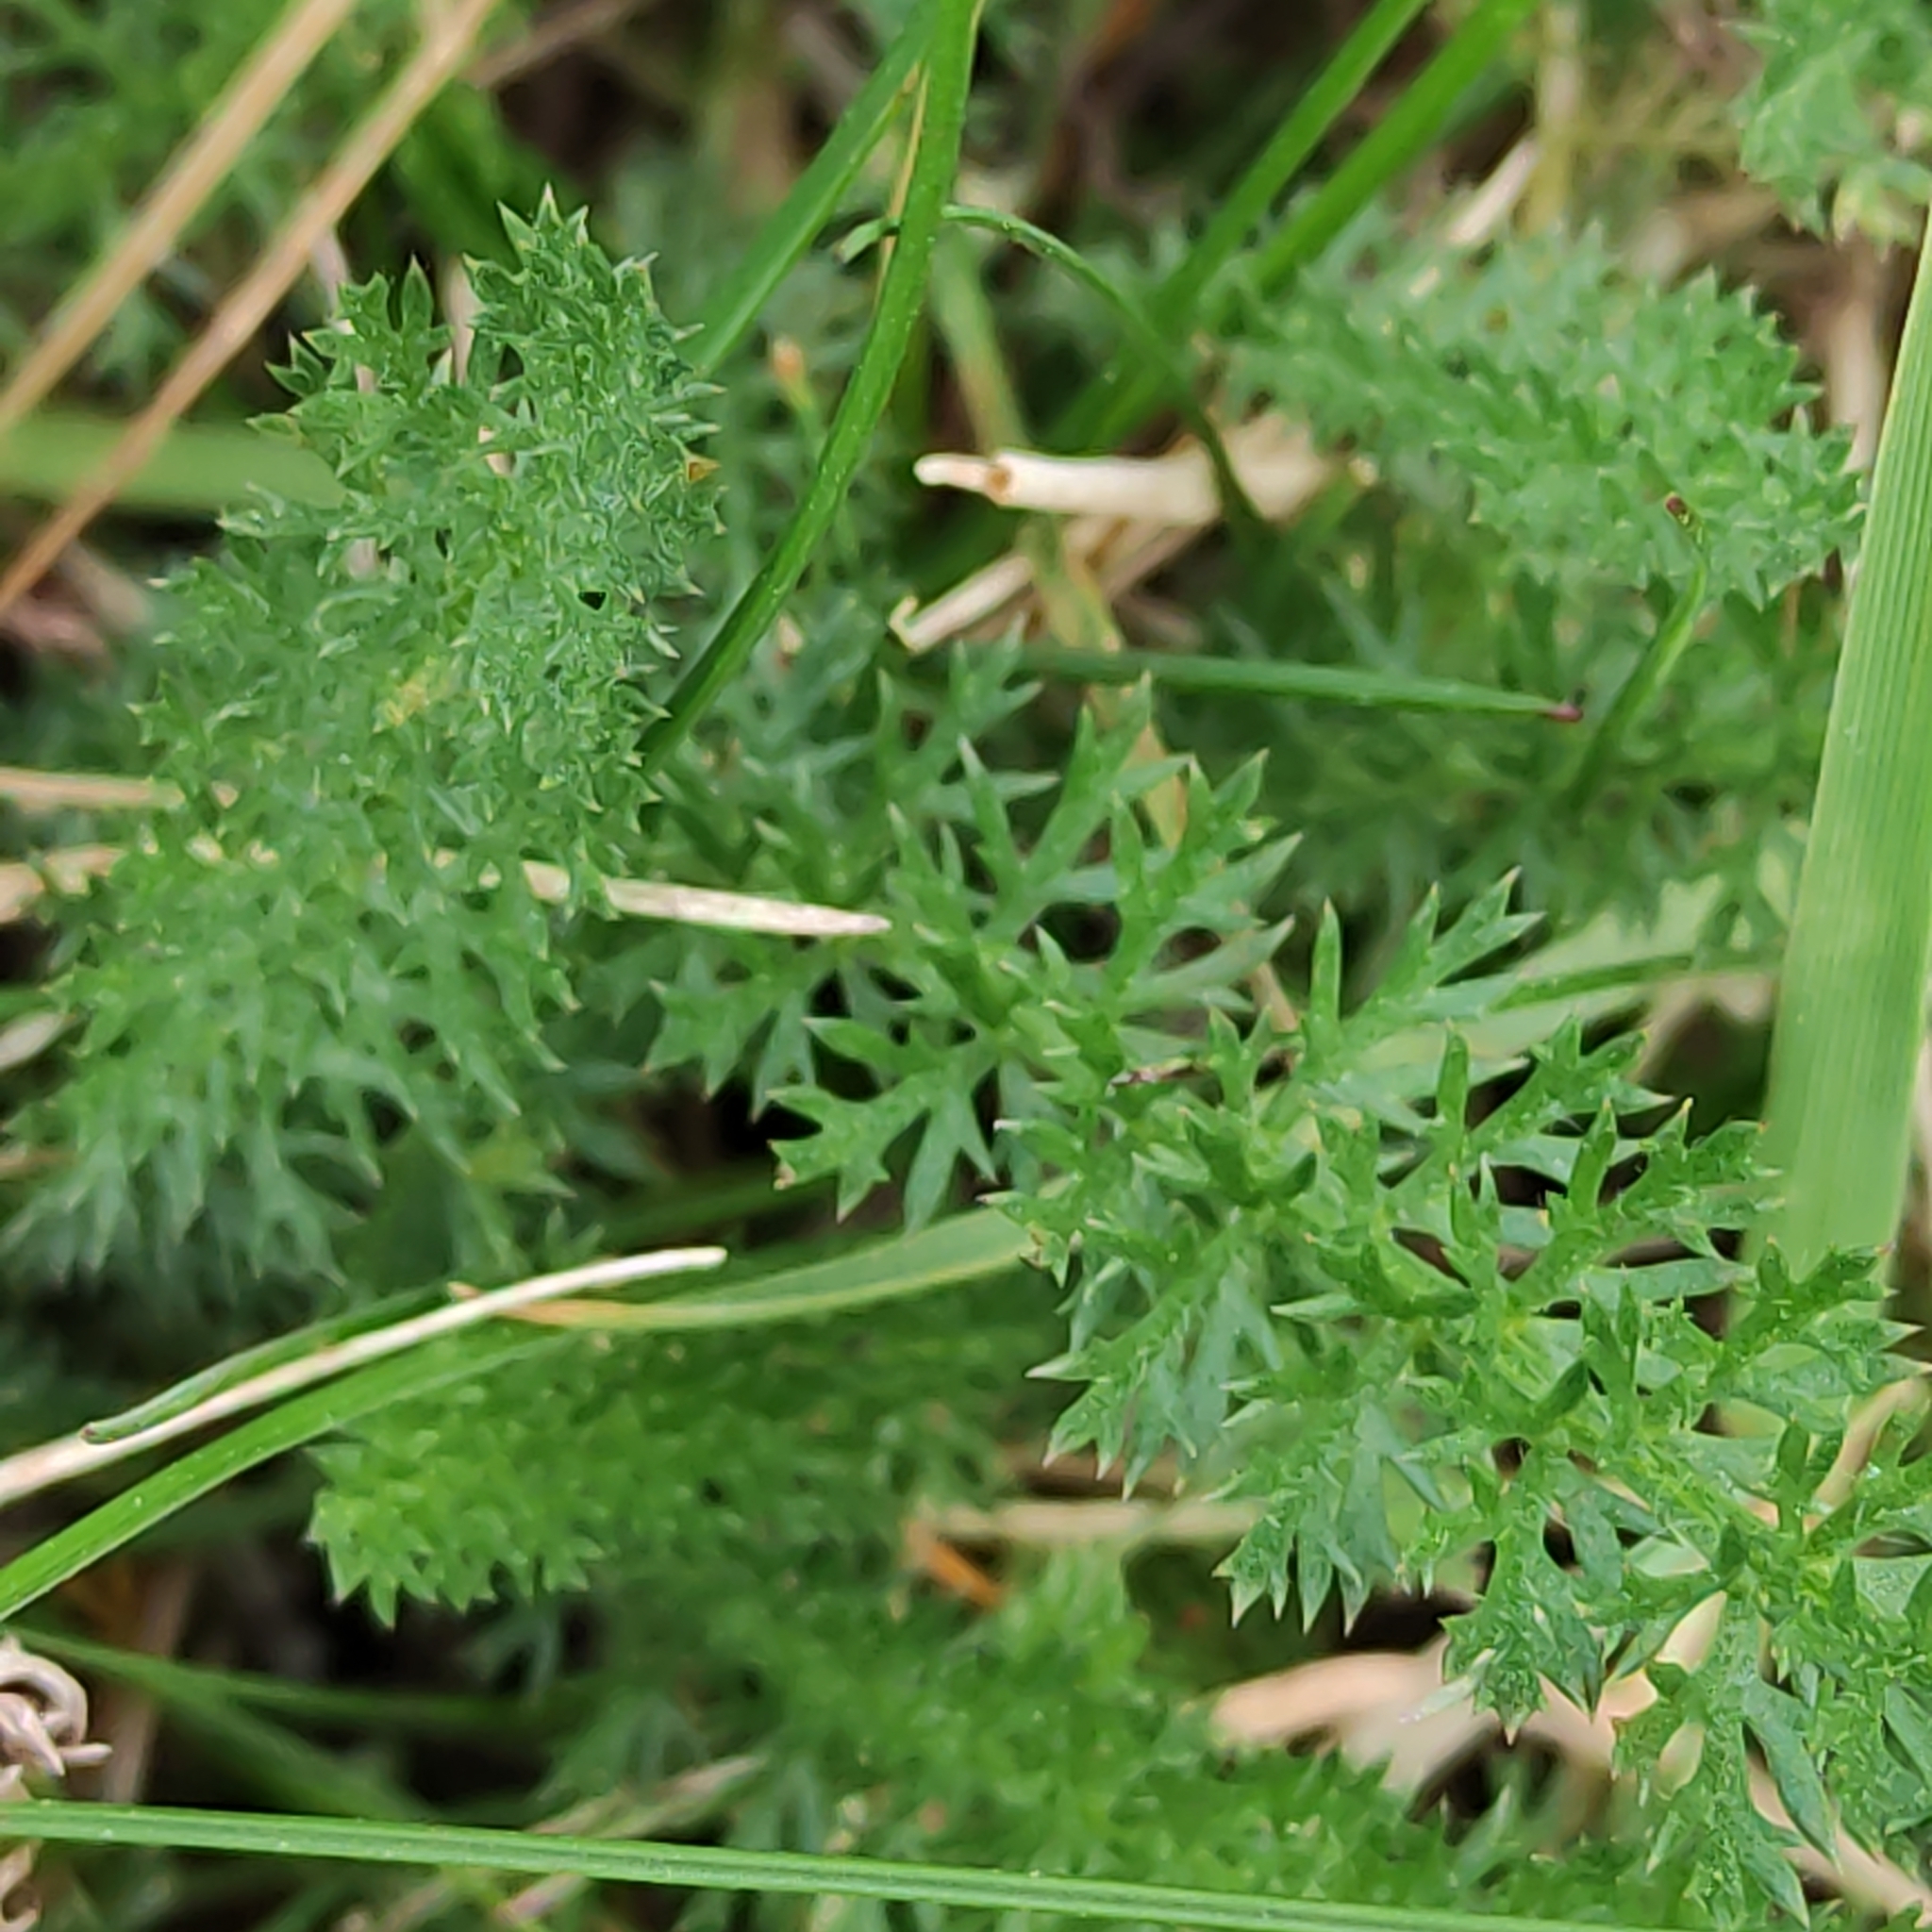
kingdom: Plantae
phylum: Tracheophyta
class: Magnoliopsida
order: Asterales
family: Asteraceae
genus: Achillea
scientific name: Achillea millefolium
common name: Yarrow
